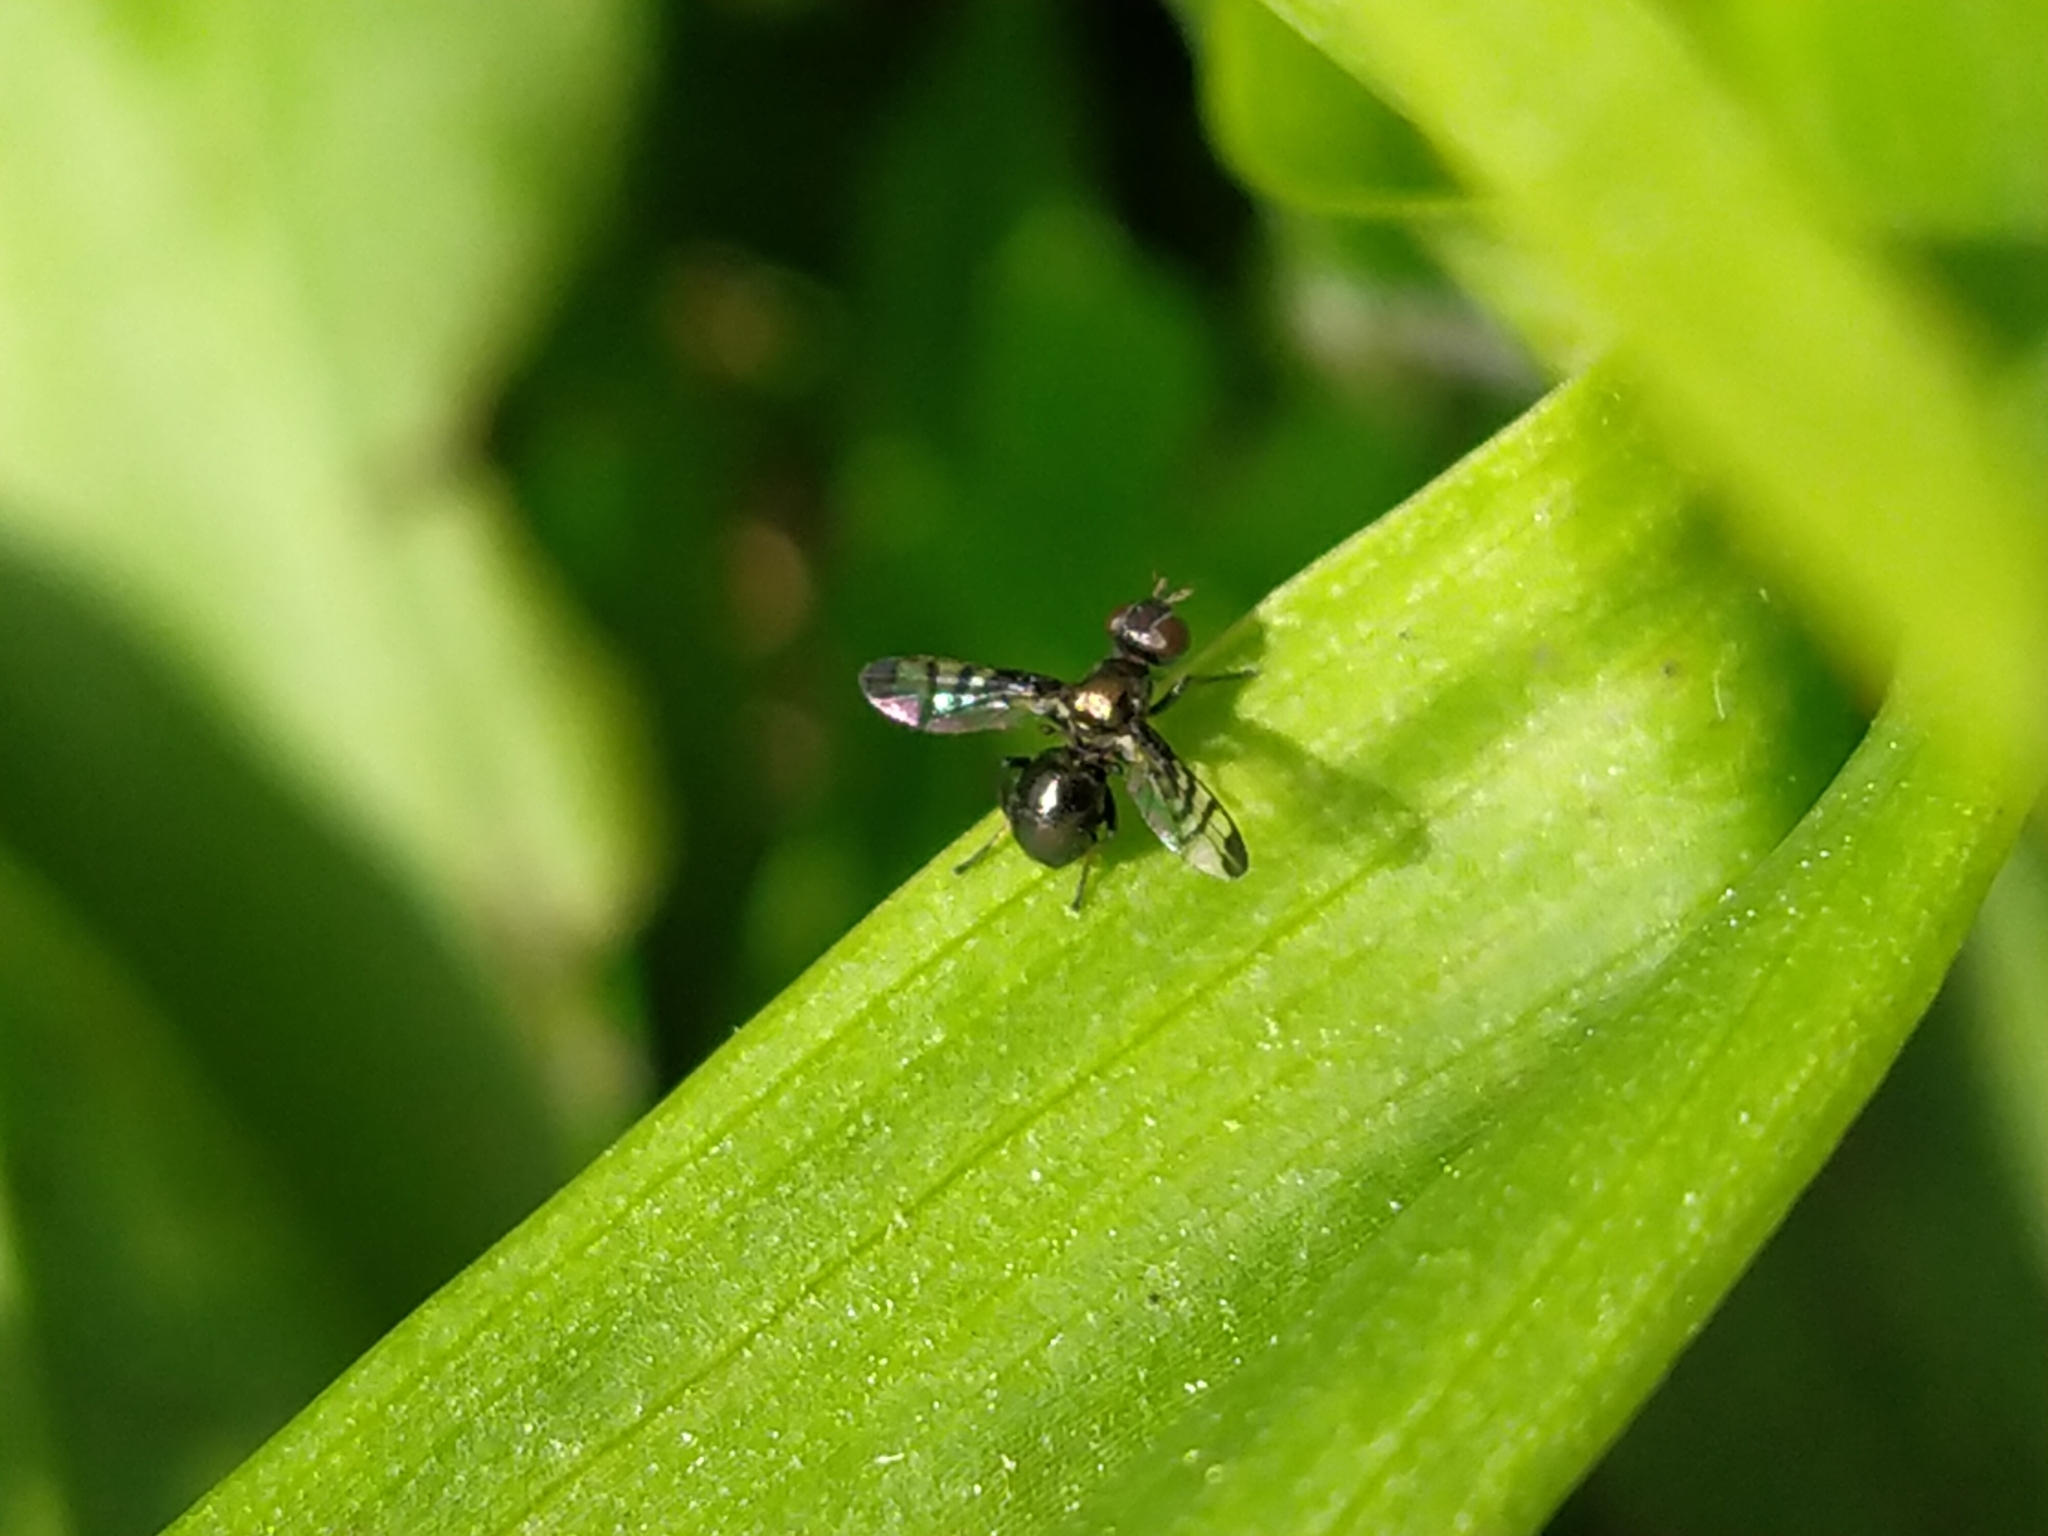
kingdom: Animalia
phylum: Arthropoda
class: Insecta
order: Diptera
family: Platystomatidae
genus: Rivellia
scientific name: Rivellia syngenesiae
